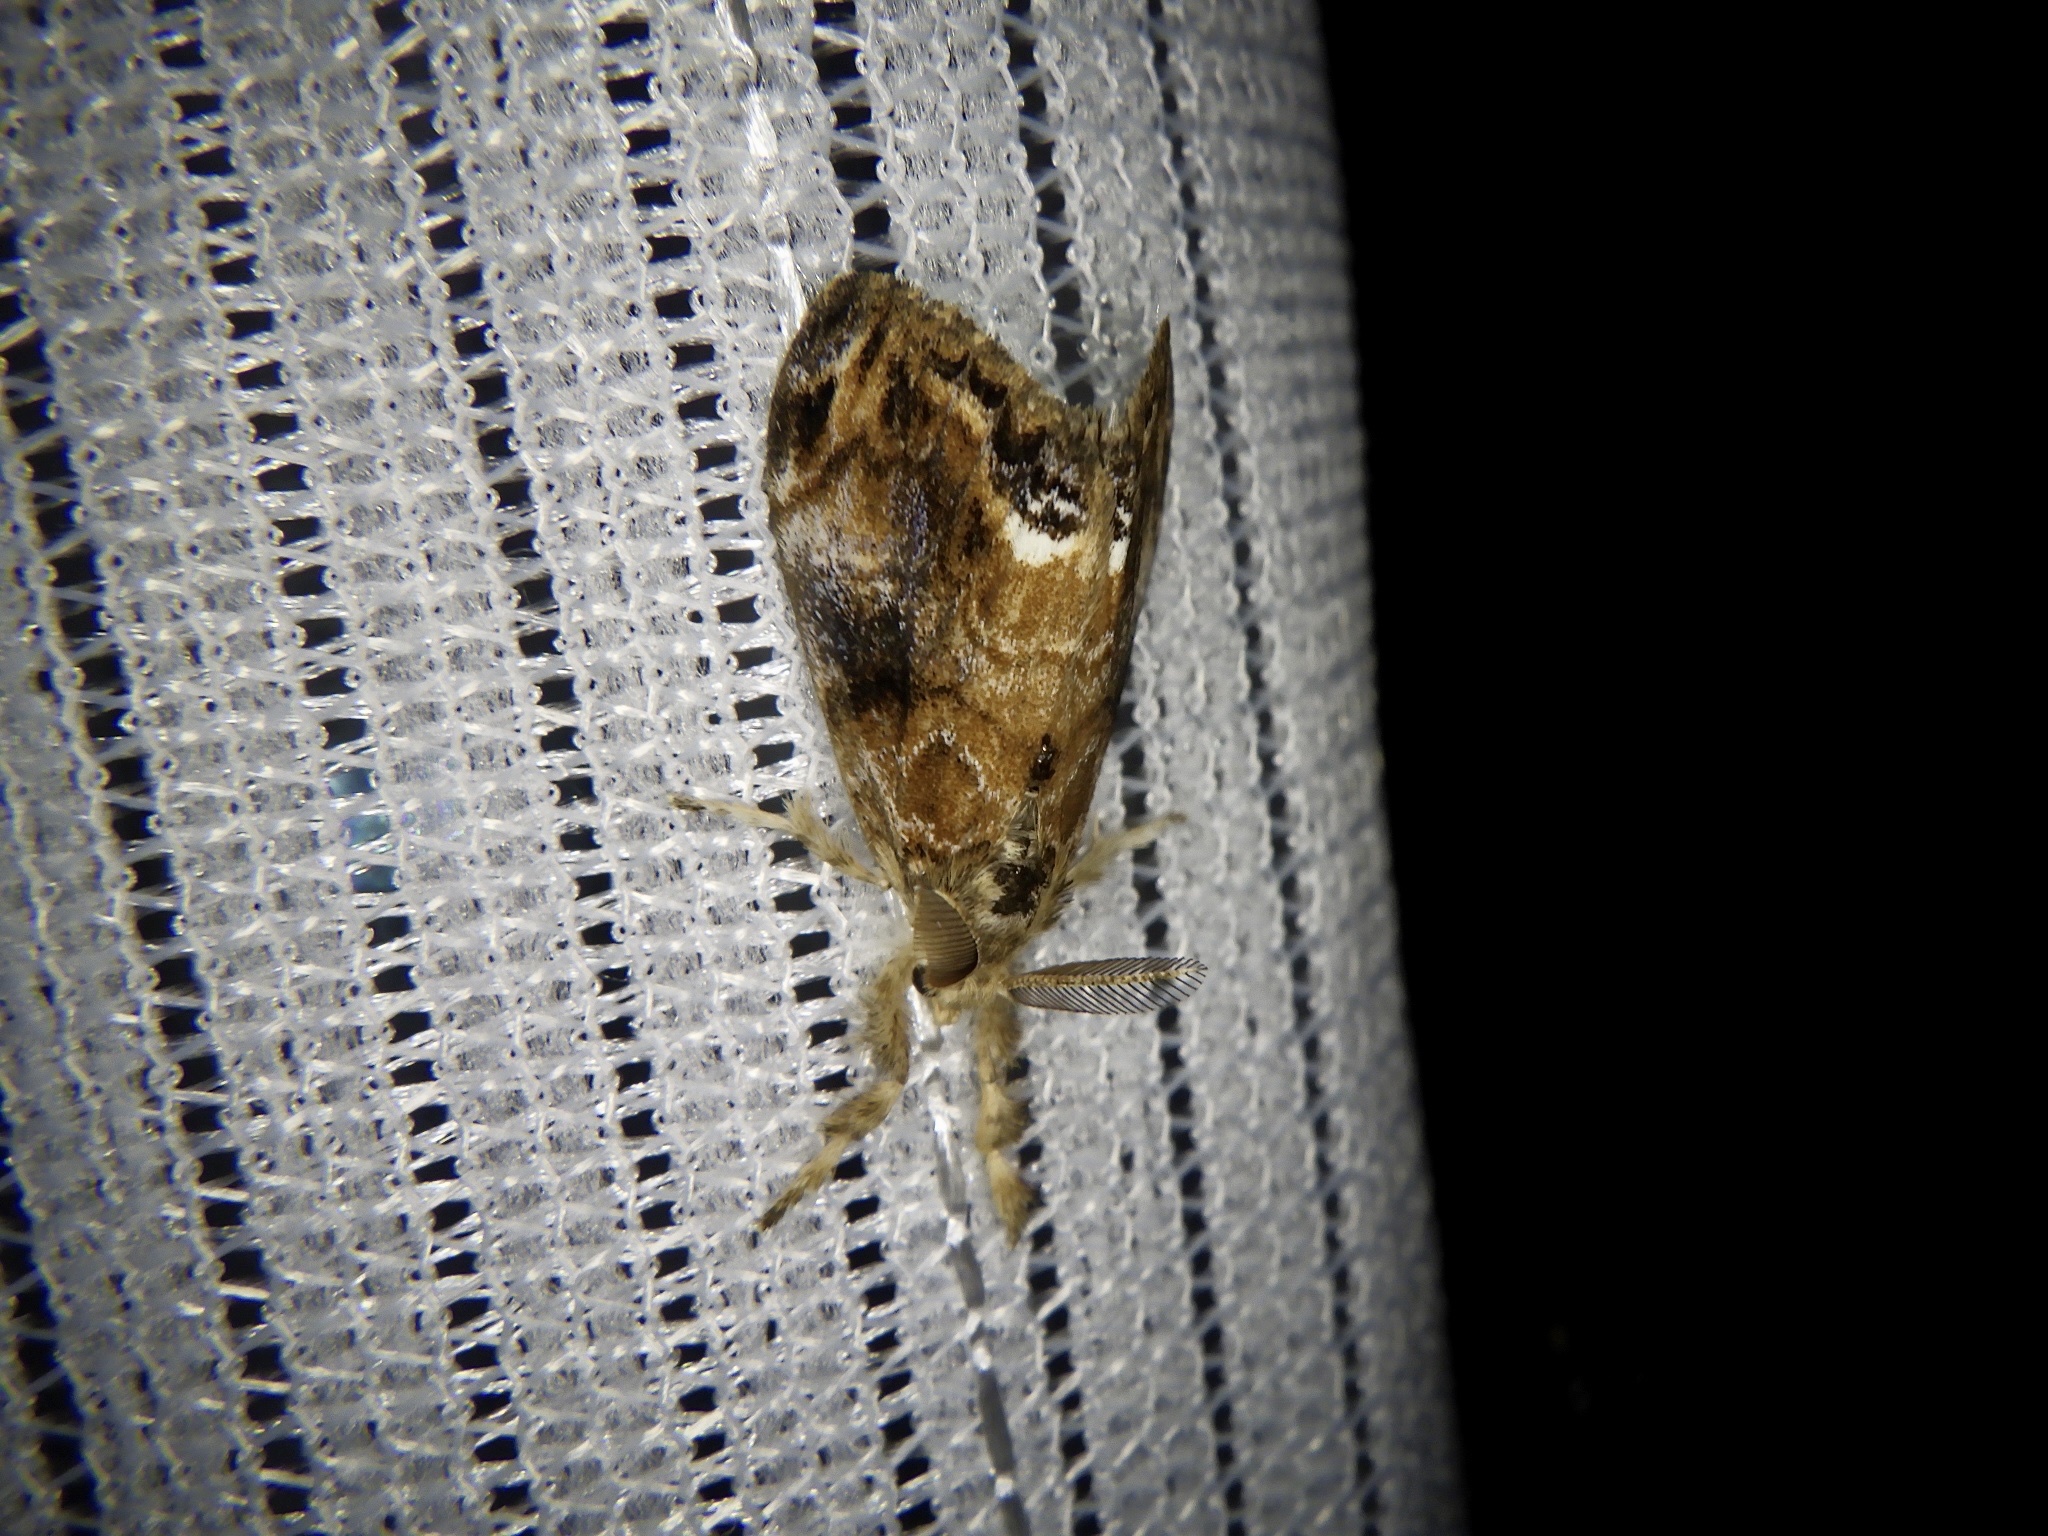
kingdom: Animalia
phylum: Arthropoda
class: Insecta
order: Lepidoptera
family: Erebidae
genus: Orgyia
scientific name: Orgyia thyellina
